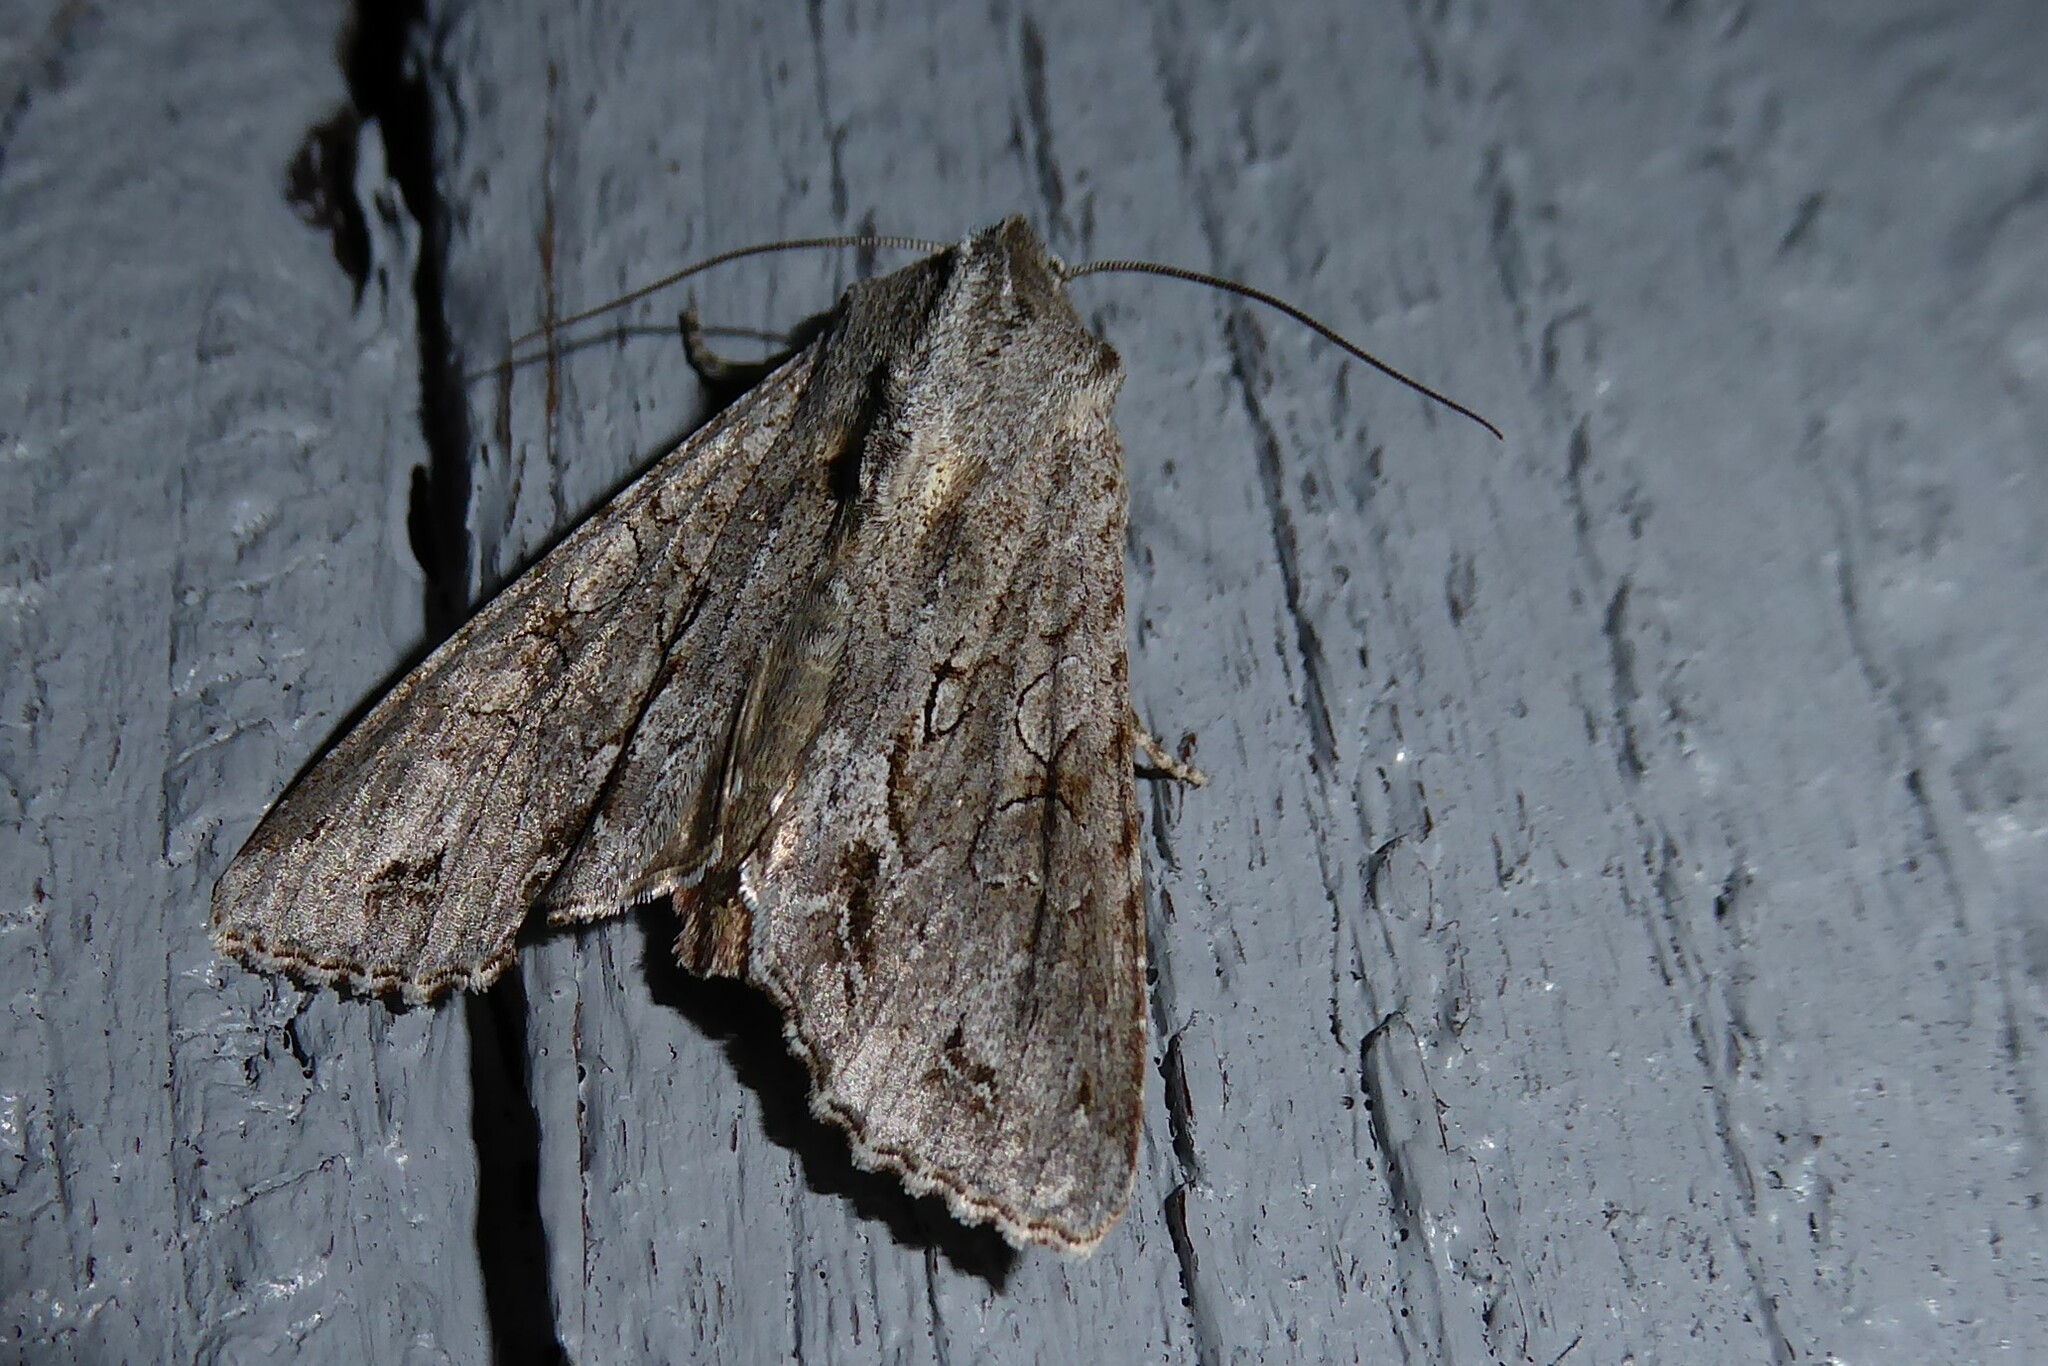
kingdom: Animalia
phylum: Arthropoda
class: Insecta
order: Lepidoptera
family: Noctuidae
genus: Ichneutica
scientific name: Ichneutica
